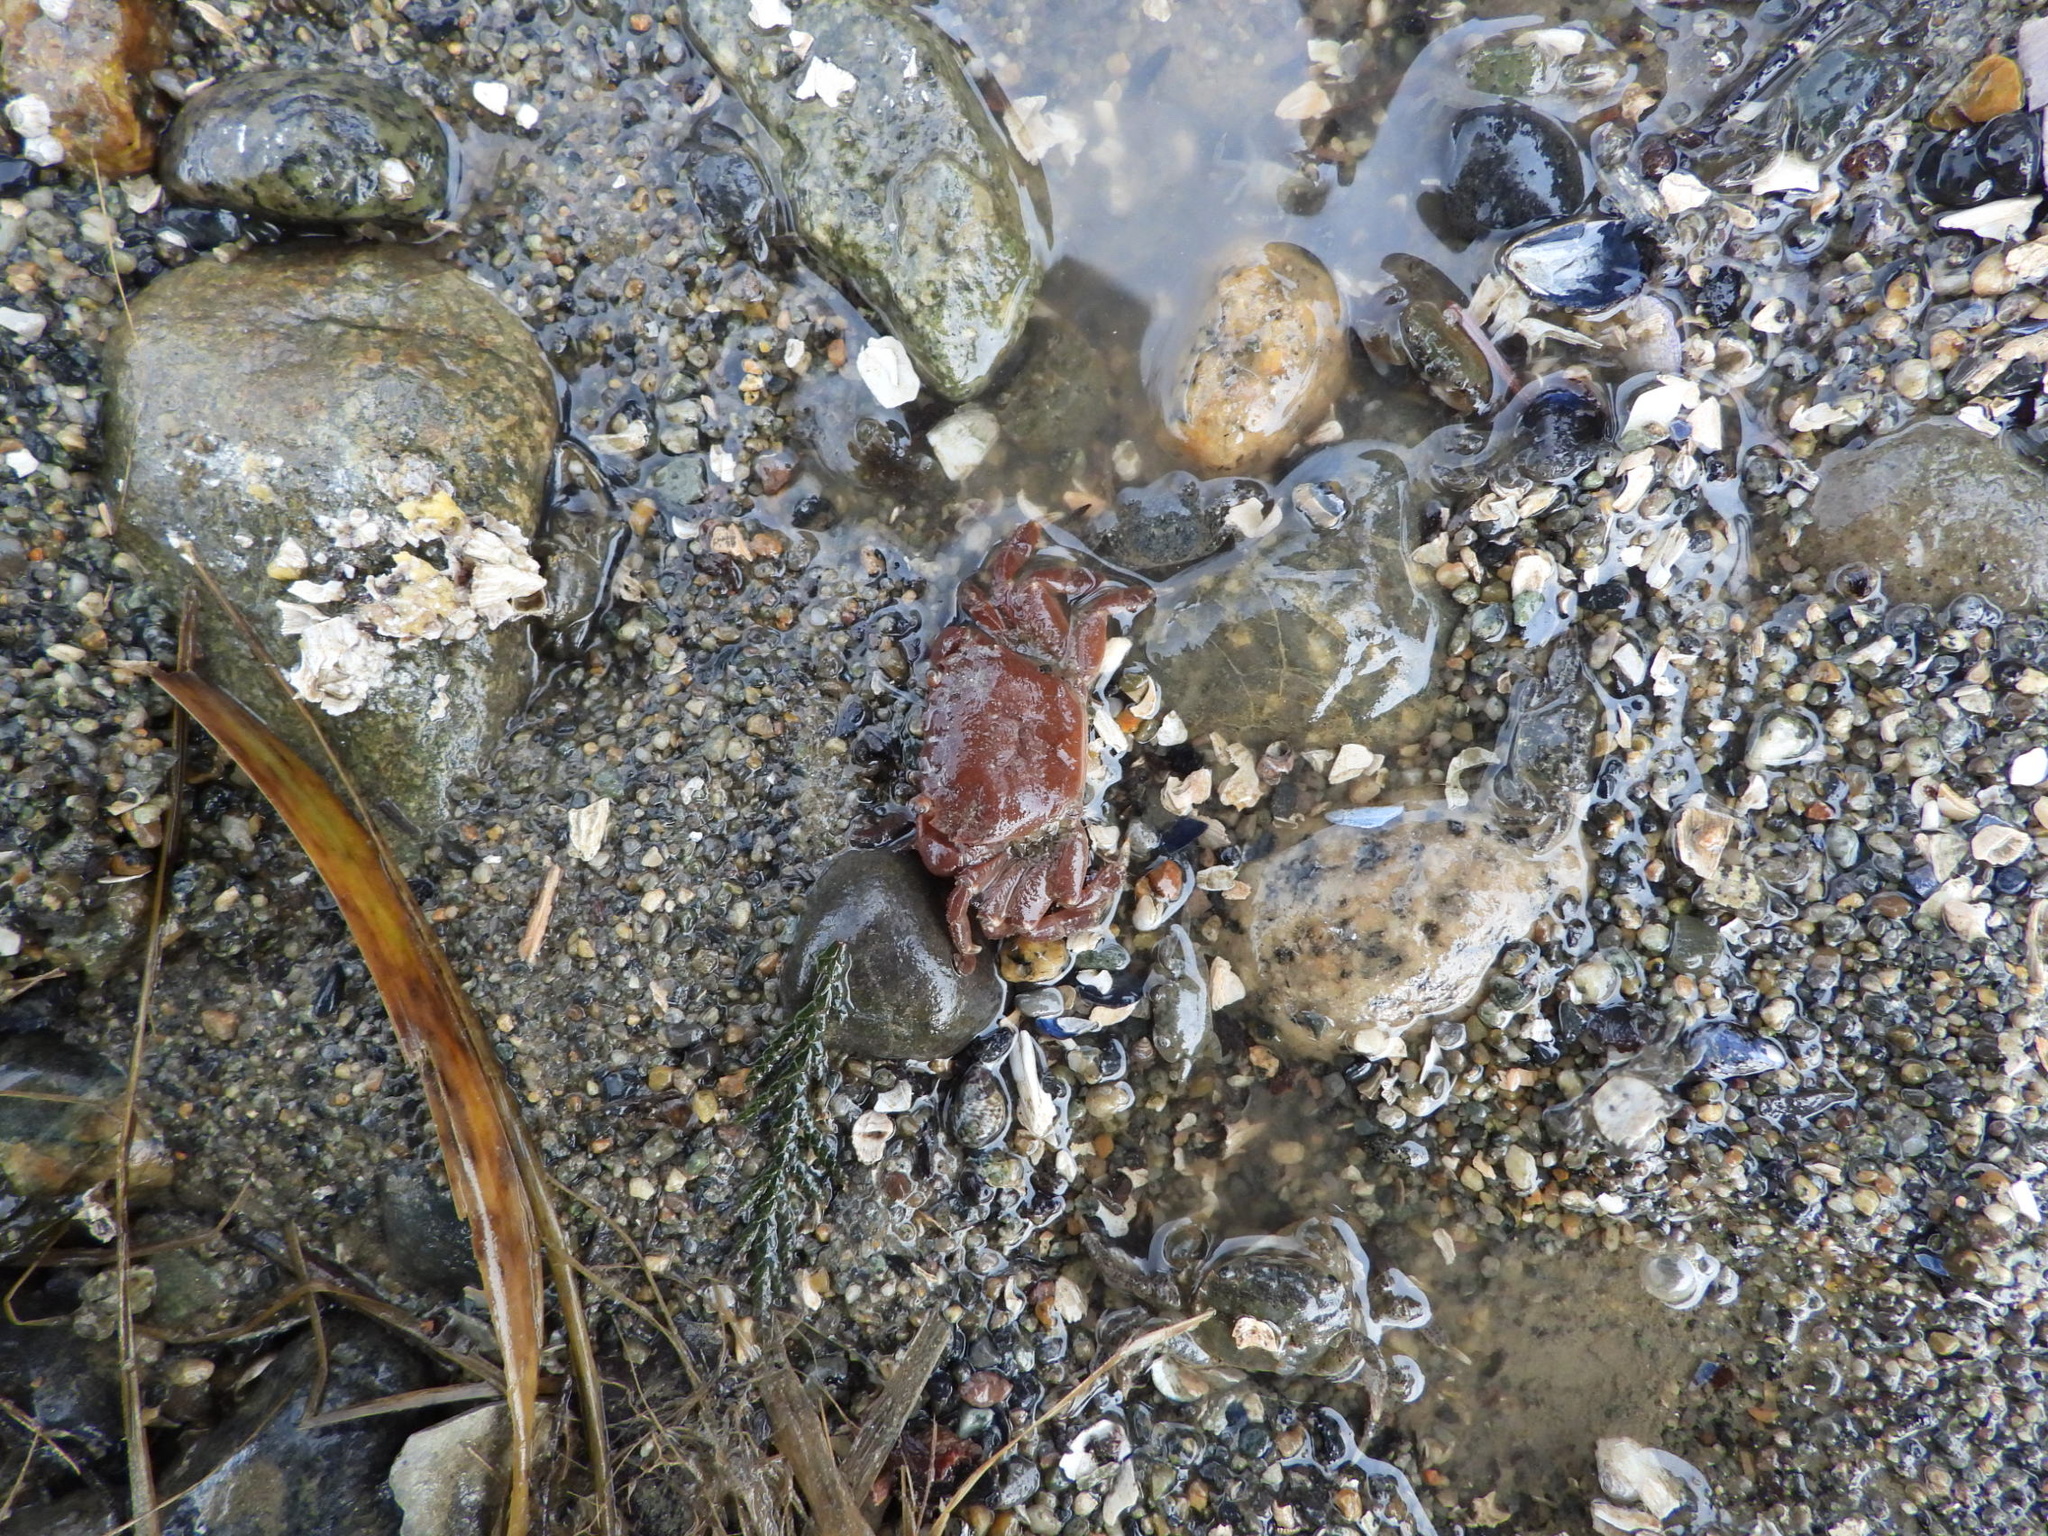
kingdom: Animalia
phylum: Arthropoda
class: Malacostraca
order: Decapoda
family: Varunidae
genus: Hemigrapsus
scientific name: Hemigrapsus oregonensis
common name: Yellow shore crab
